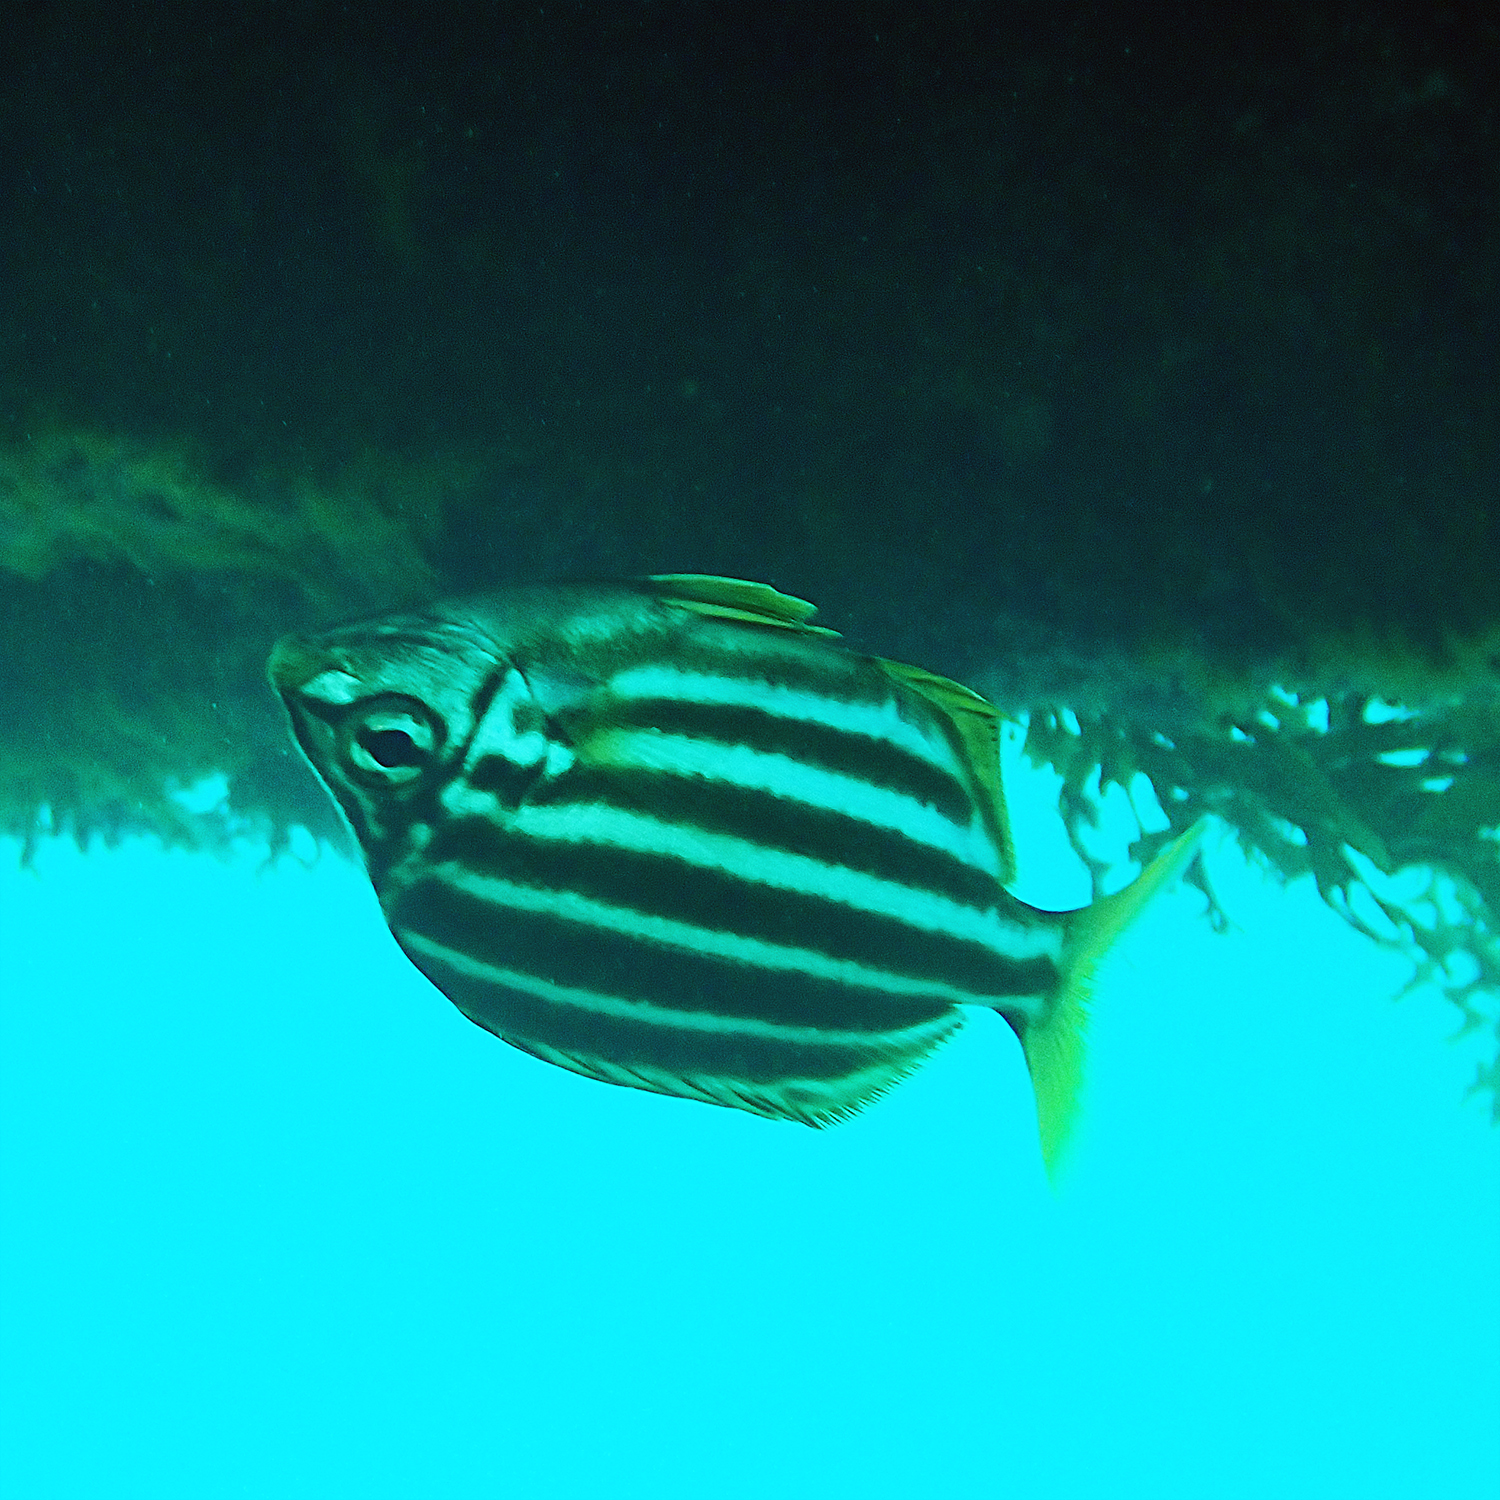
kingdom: Animalia
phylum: Chordata
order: Perciformes
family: Kyphosidae
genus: Atypichthys
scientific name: Atypichthys latus
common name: Mado
